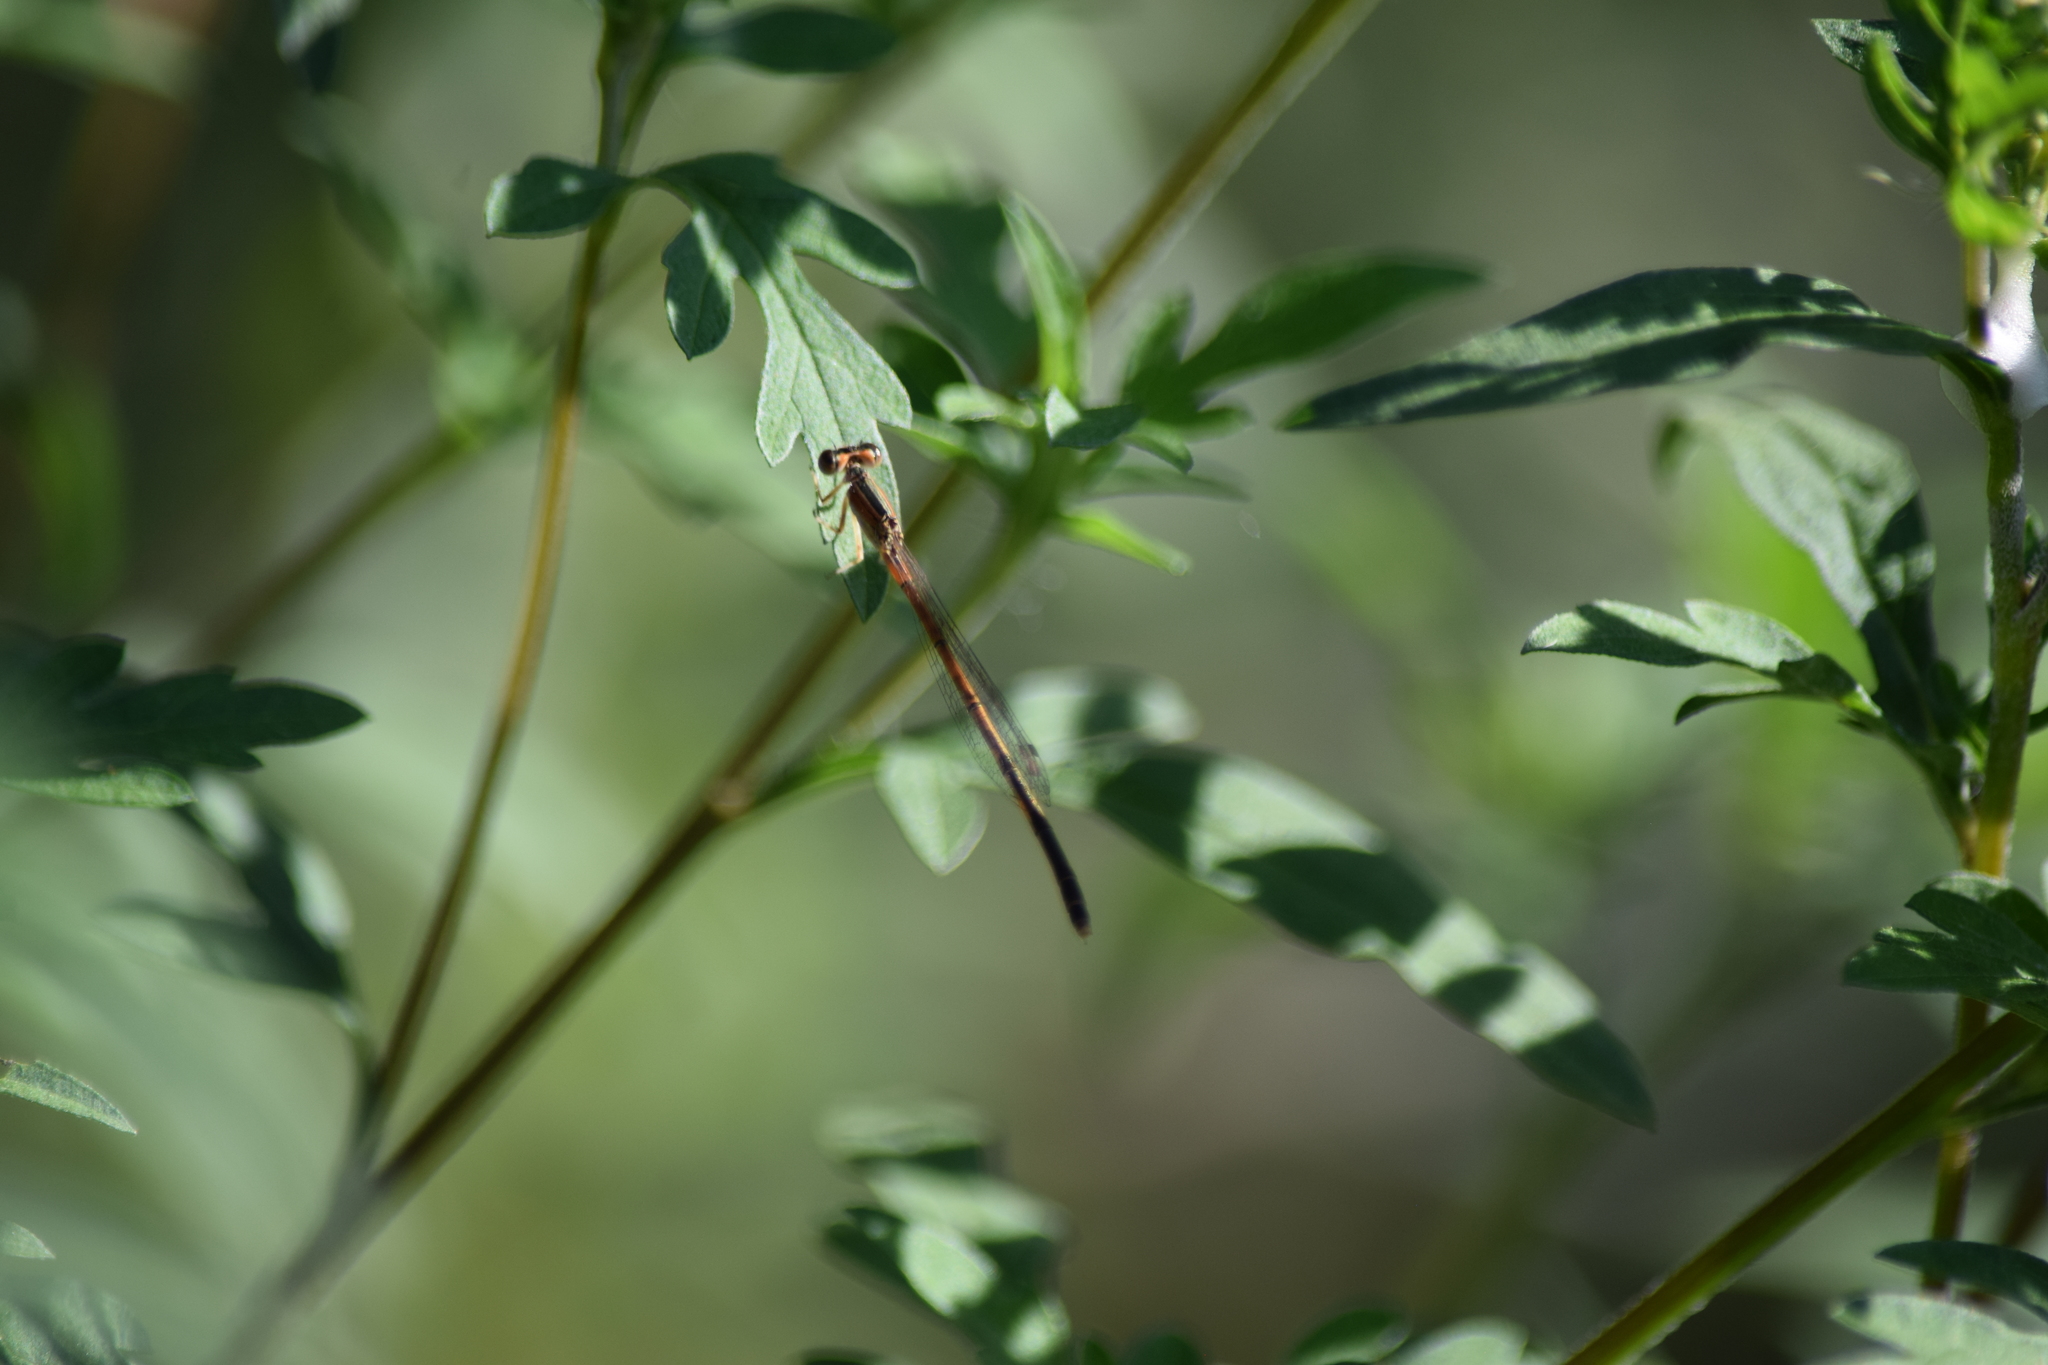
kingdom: Animalia
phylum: Arthropoda
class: Insecta
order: Odonata
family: Coenagrionidae
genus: Ischnura
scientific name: Ischnura hastata
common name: Citrine forktail
